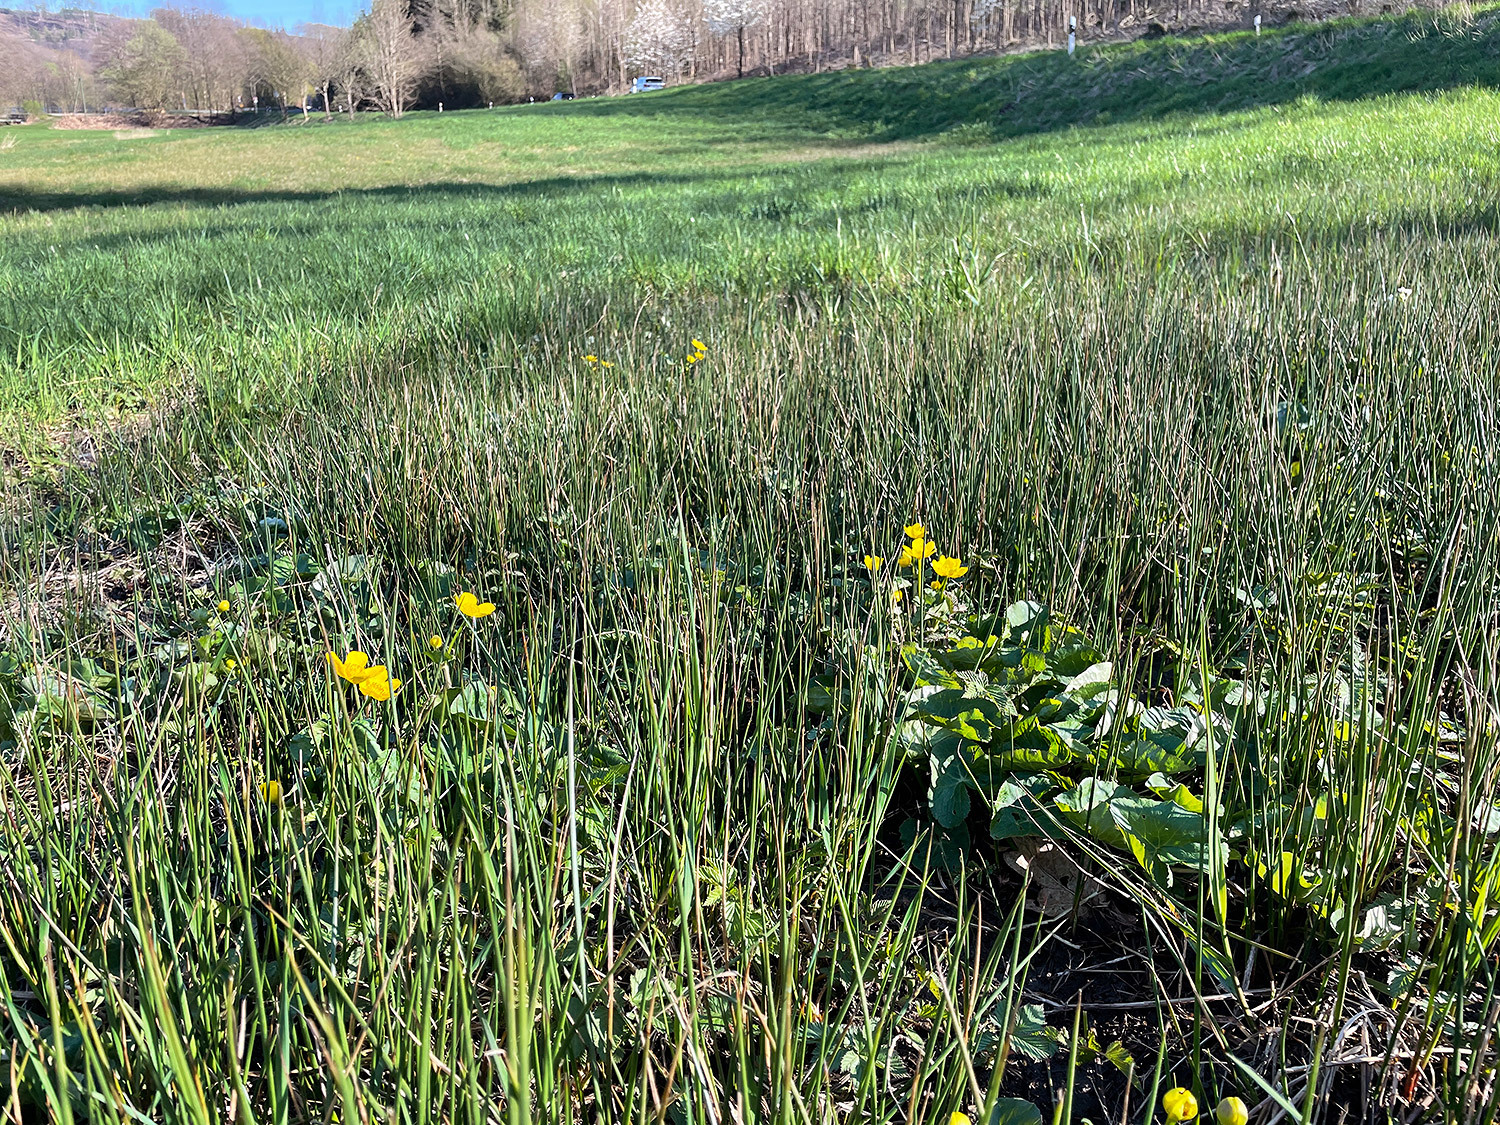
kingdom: Plantae
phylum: Tracheophyta
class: Magnoliopsida
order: Ranunculales
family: Ranunculaceae
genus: Caltha
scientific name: Caltha palustris
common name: Marsh marigold
